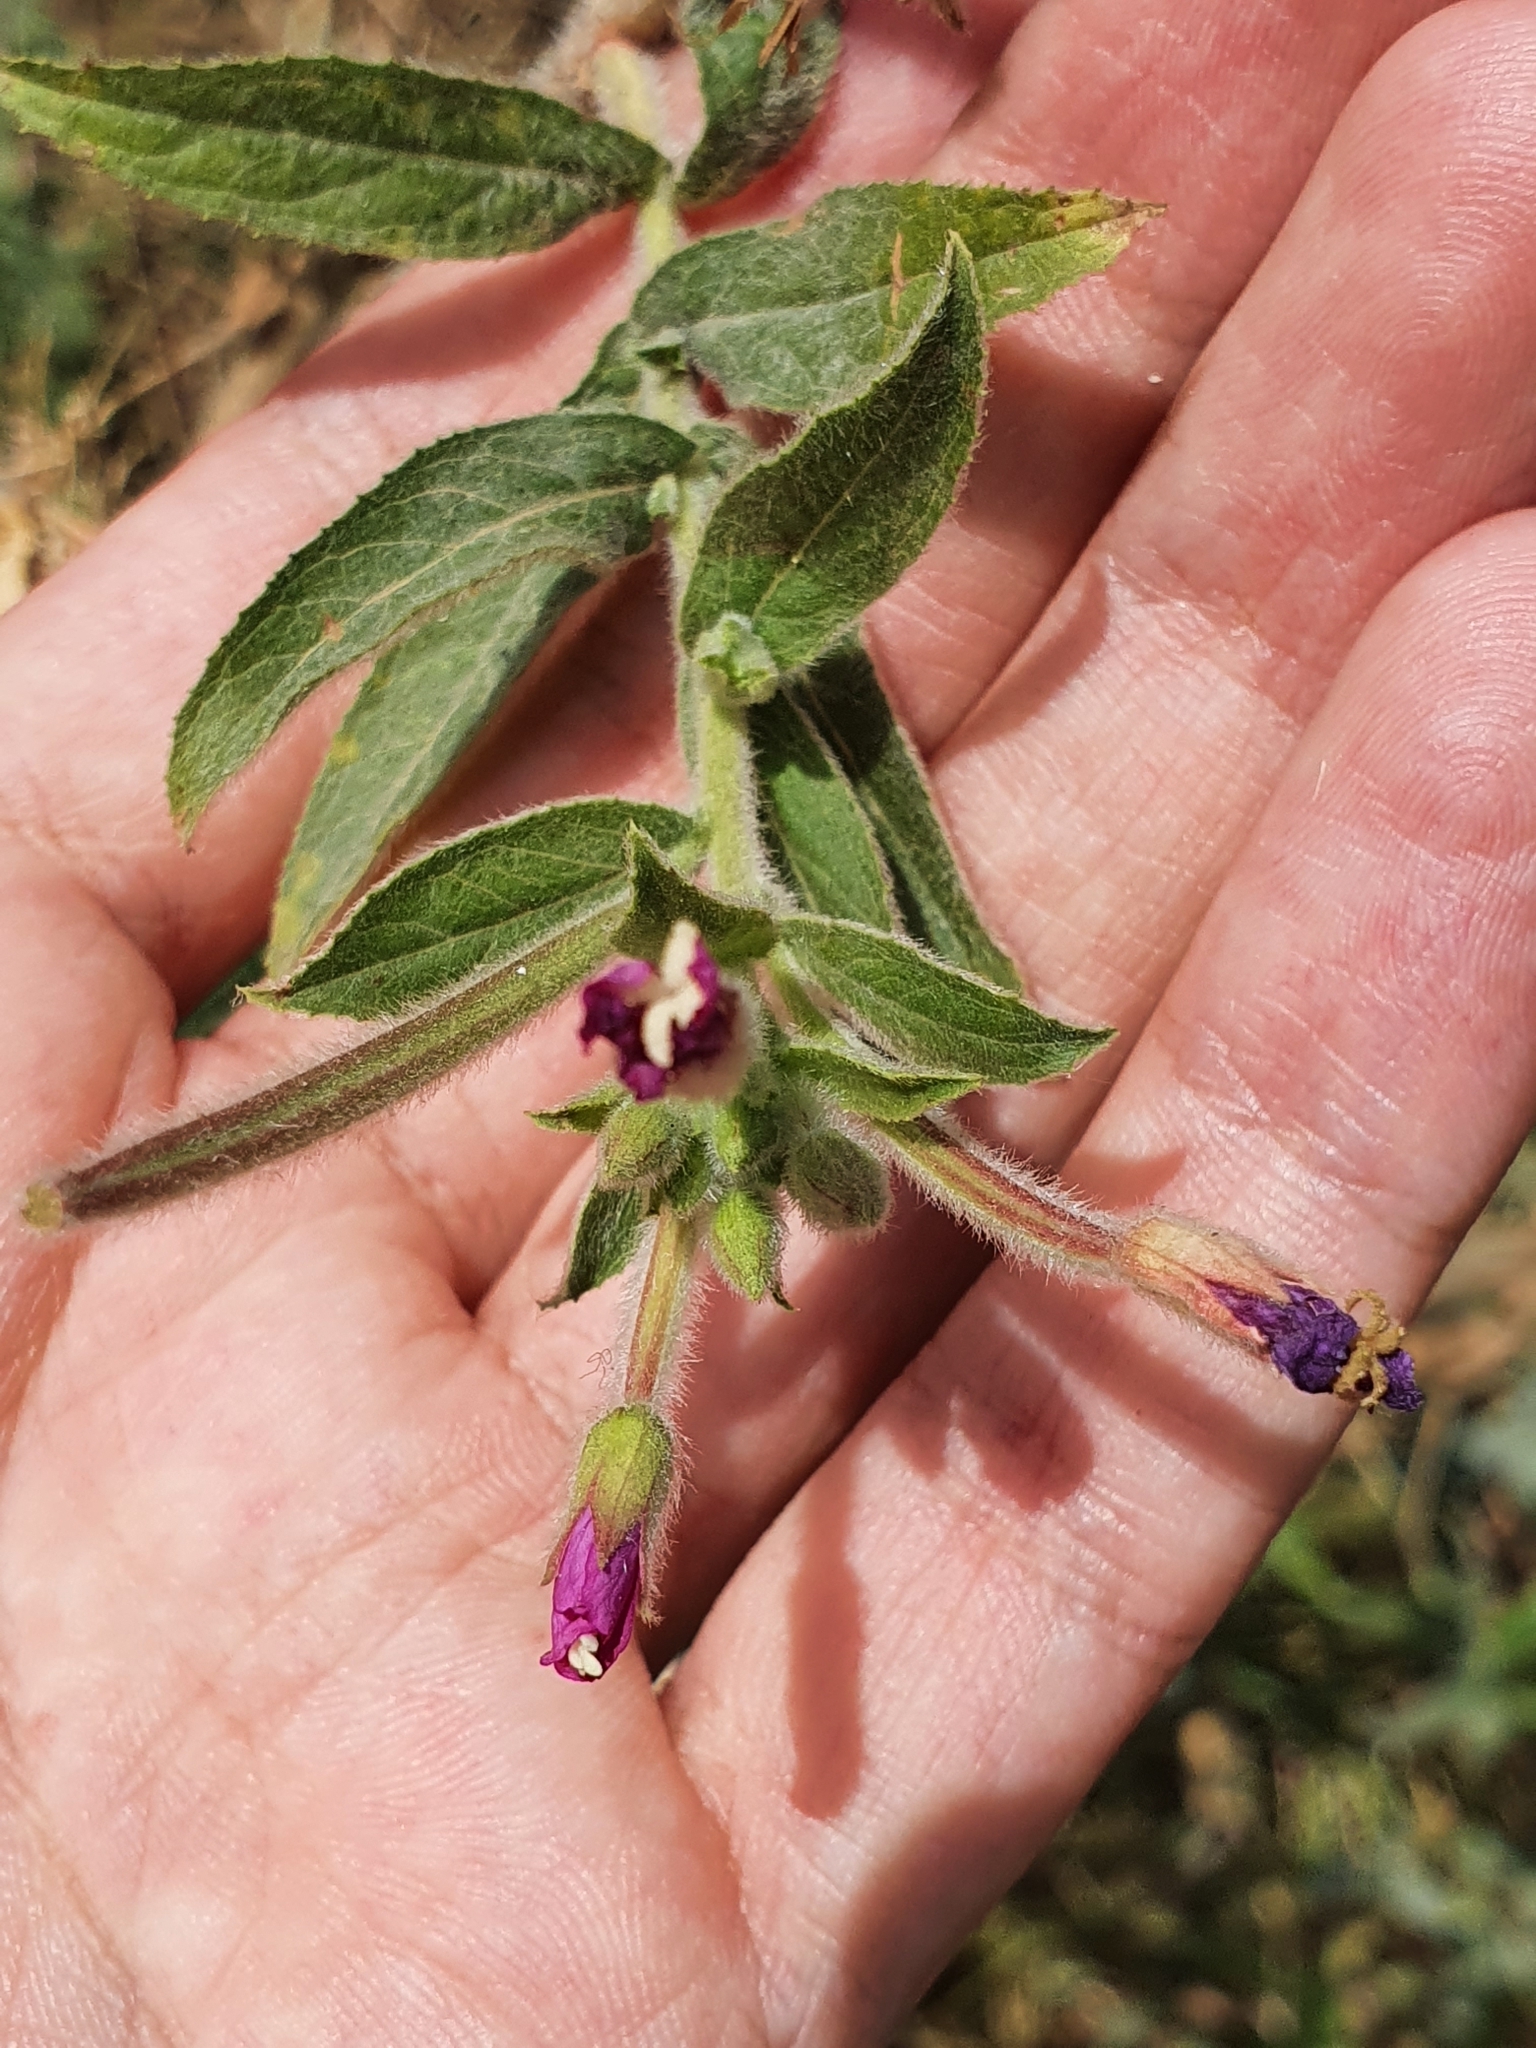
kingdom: Plantae
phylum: Tracheophyta
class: Magnoliopsida
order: Myrtales
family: Onagraceae
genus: Epilobium
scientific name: Epilobium hirsutum
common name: Great willowherb
